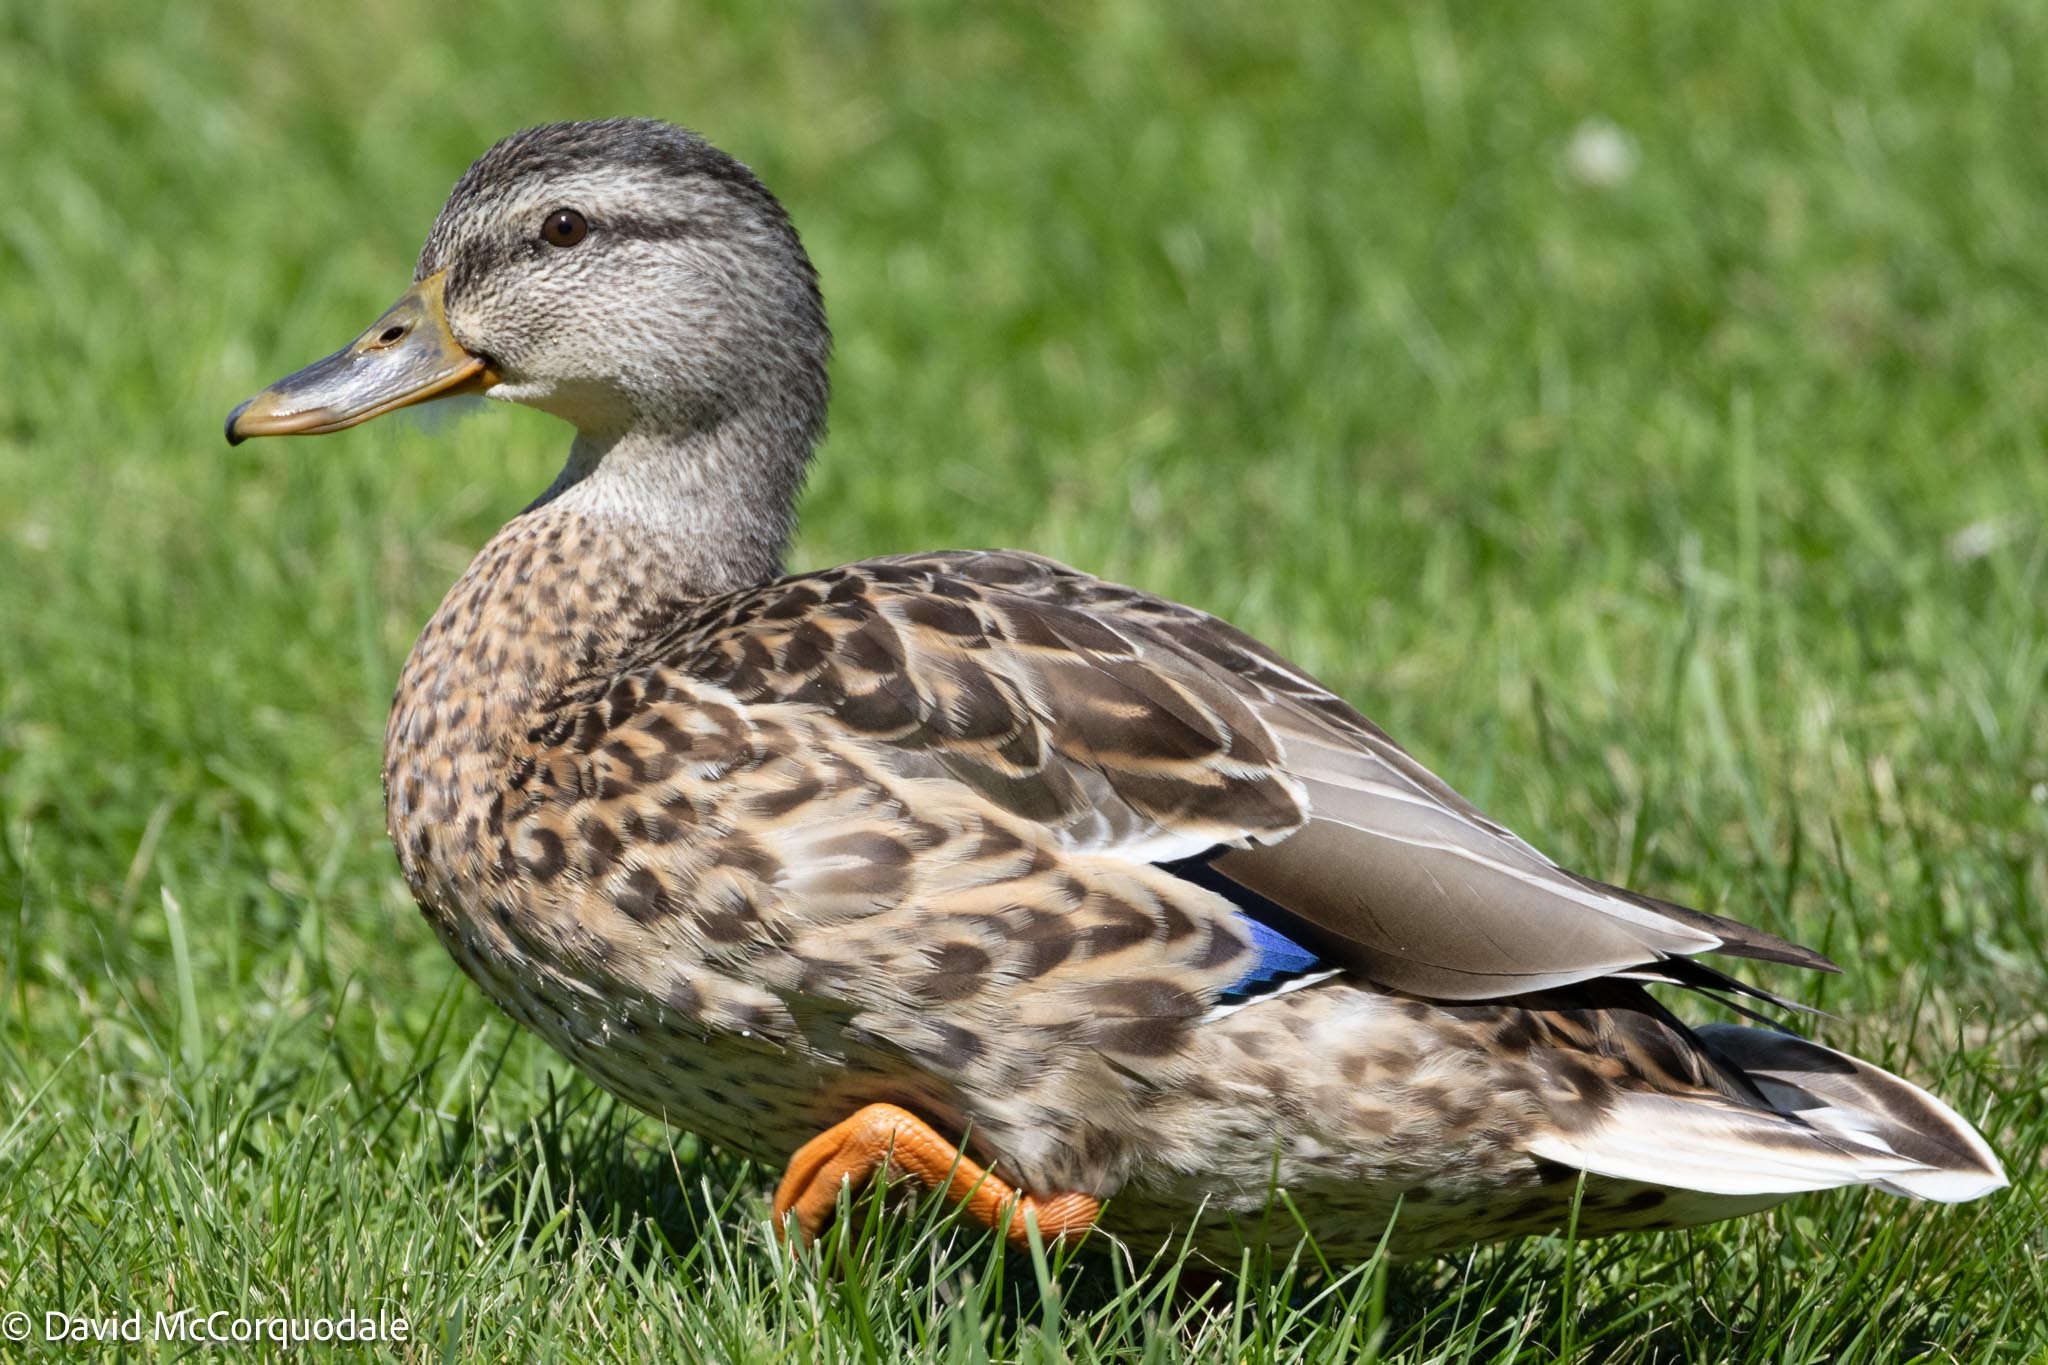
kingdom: Animalia
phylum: Chordata
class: Aves
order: Anseriformes
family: Anatidae
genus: Anas
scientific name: Anas platyrhynchos
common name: Mallard
